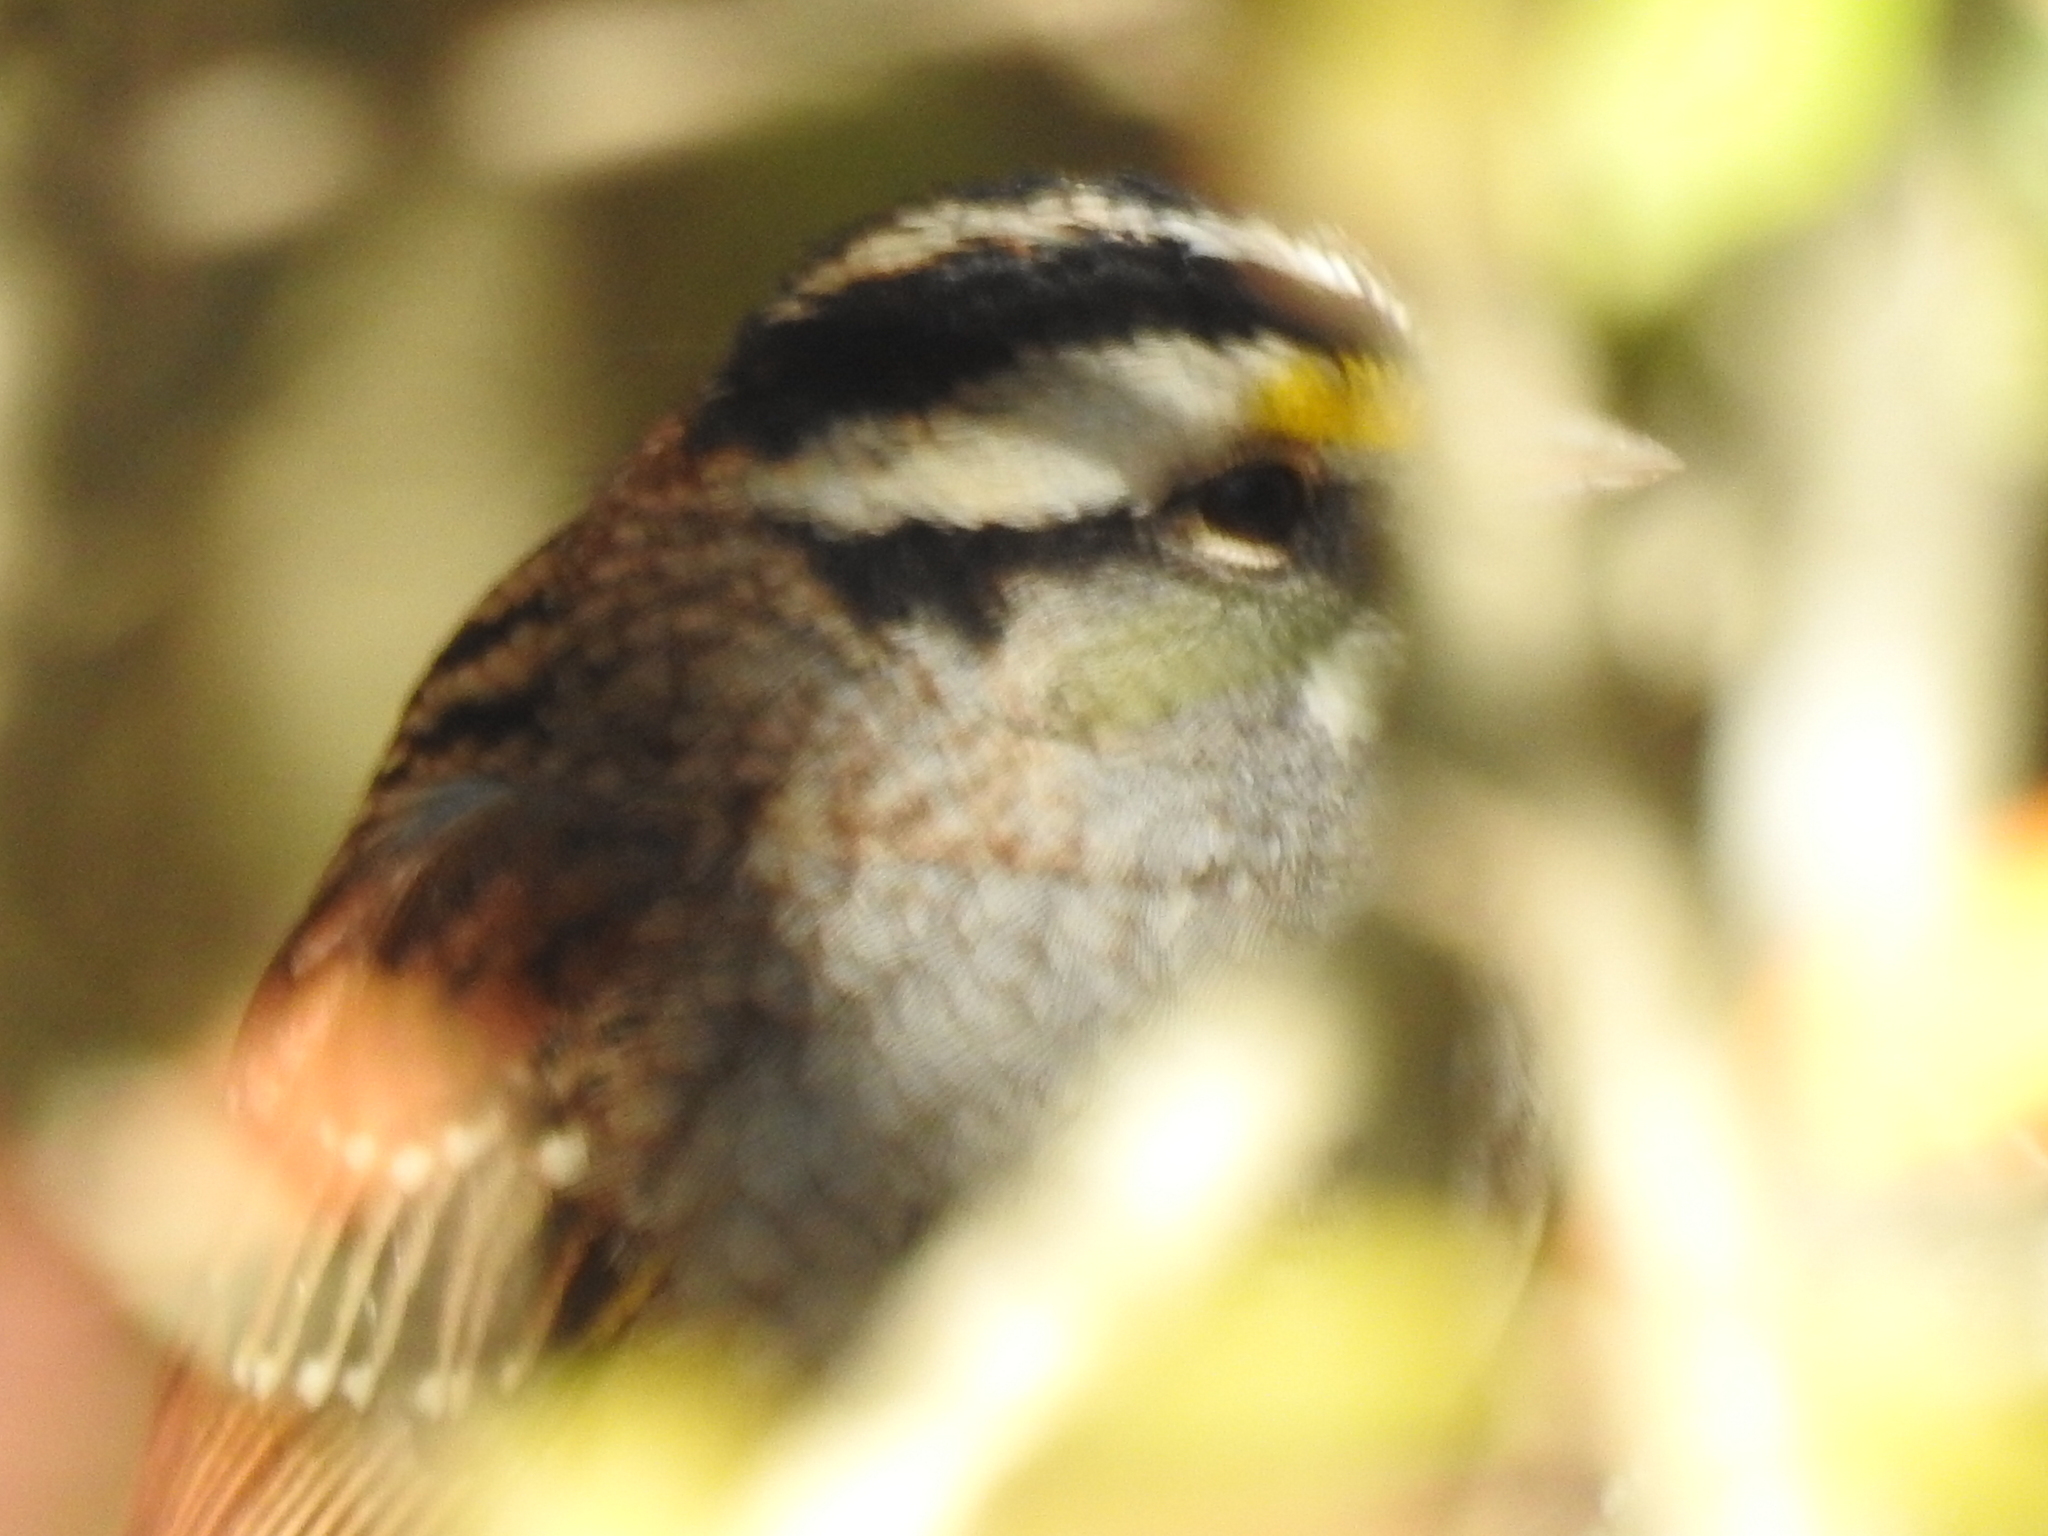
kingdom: Animalia
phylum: Chordata
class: Aves
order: Passeriformes
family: Passerellidae
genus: Zonotrichia
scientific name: Zonotrichia albicollis
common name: White-throated sparrow
